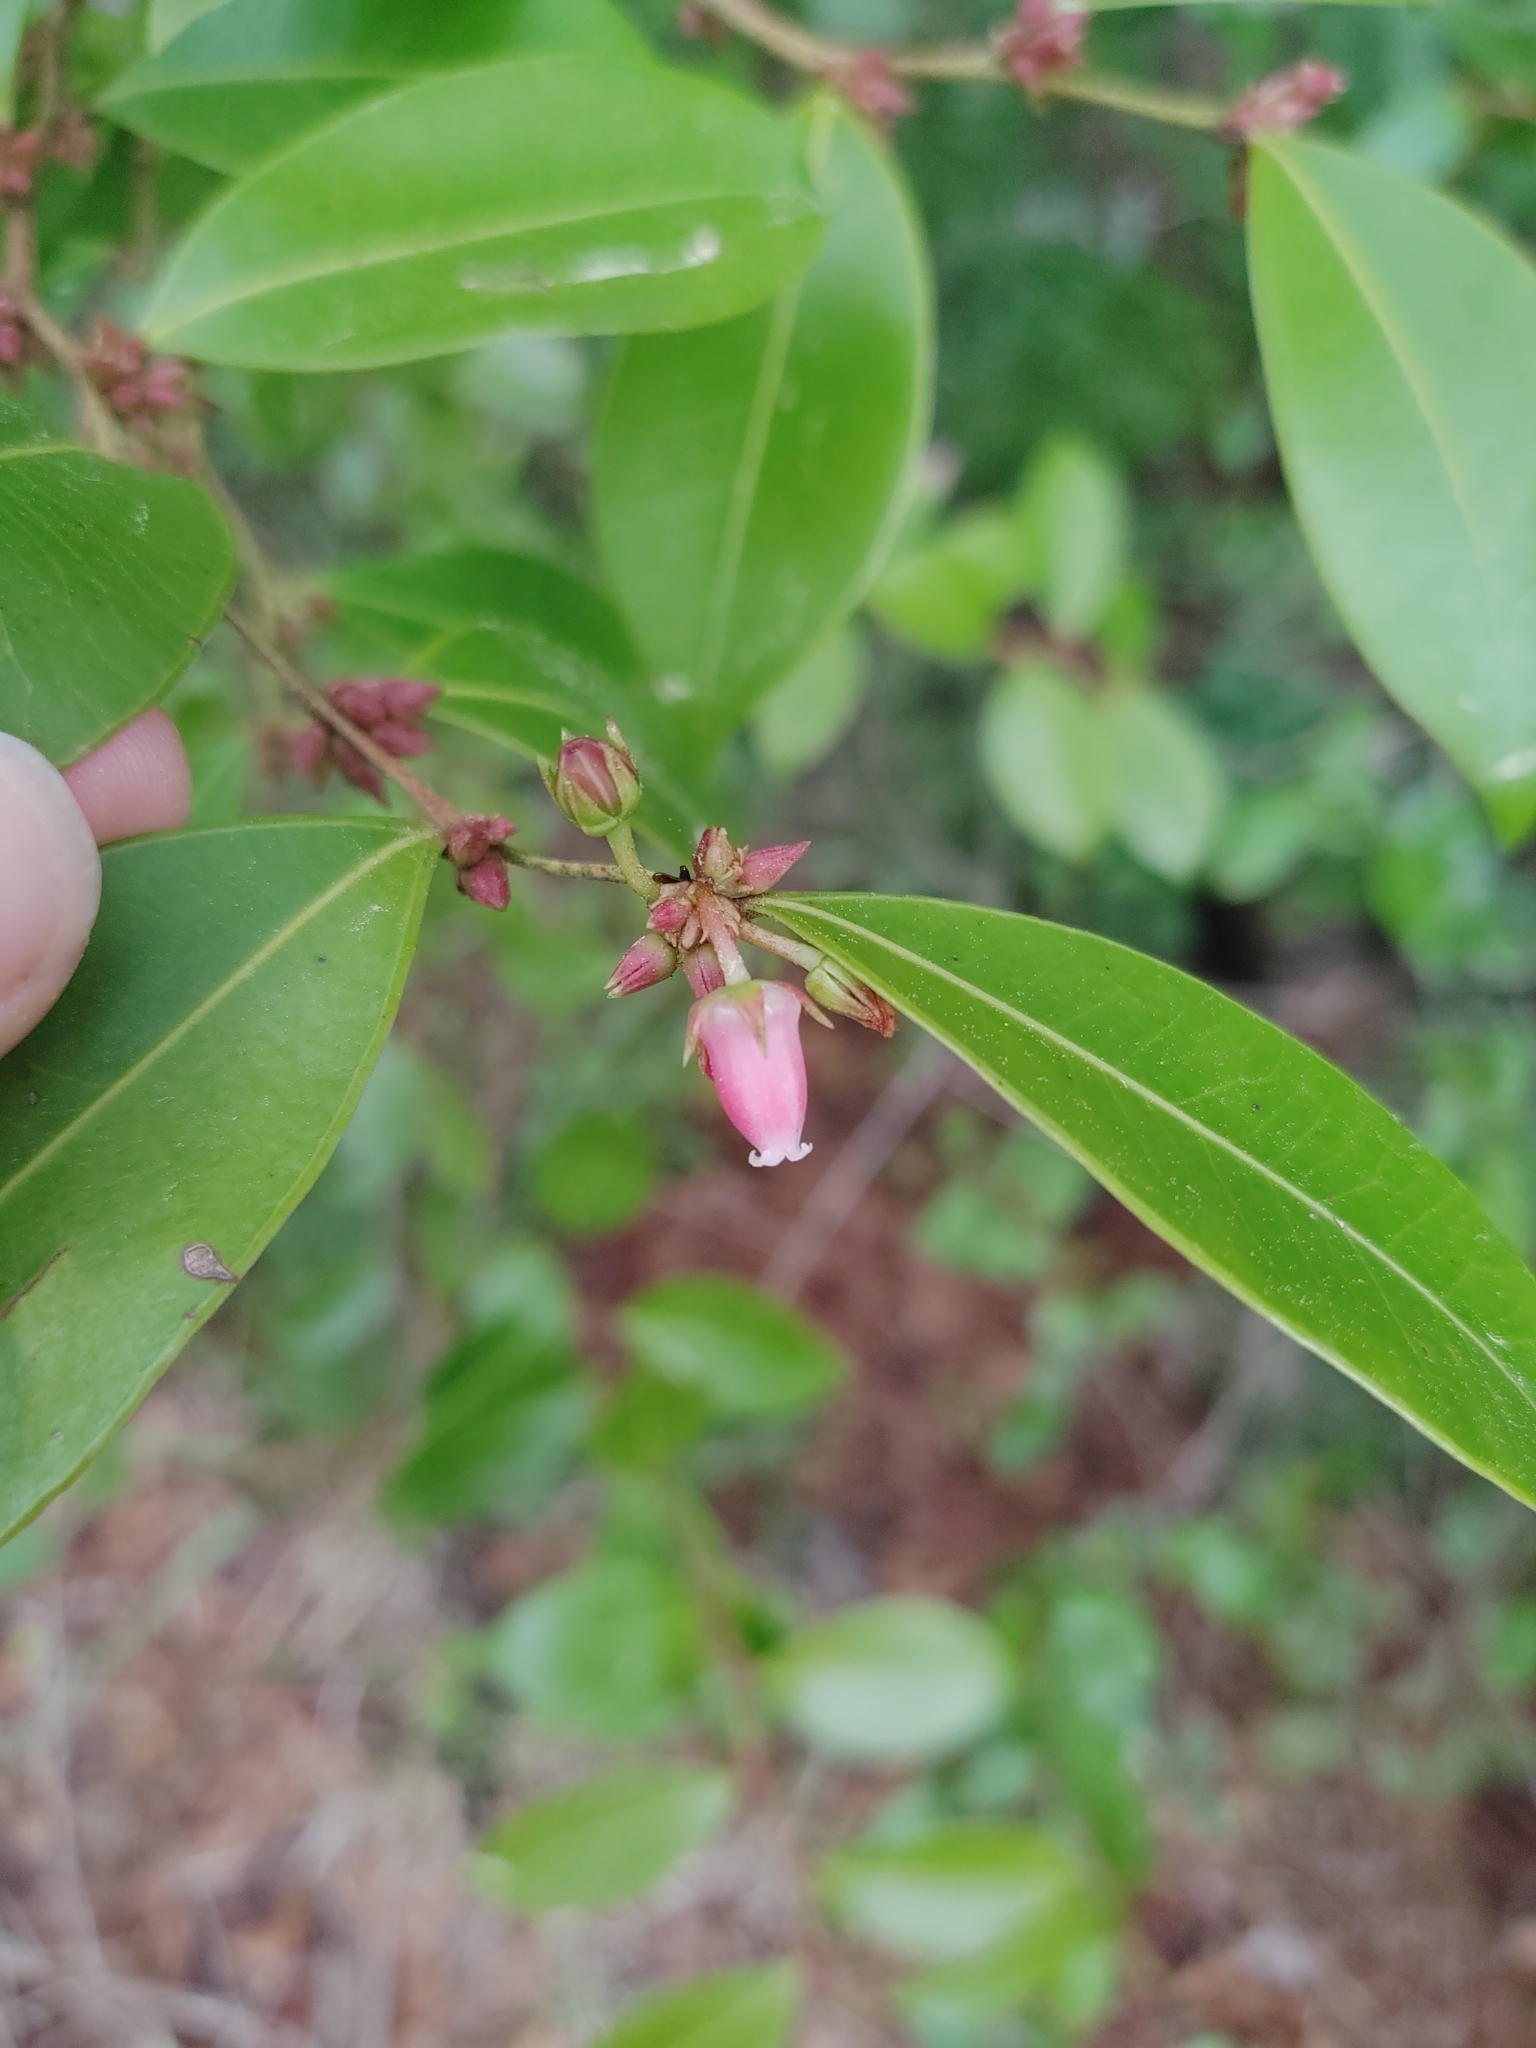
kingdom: Plantae
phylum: Tracheophyta
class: Magnoliopsida
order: Ericales
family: Ericaceae
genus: Lyonia
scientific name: Lyonia lucida
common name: Fetterbush
